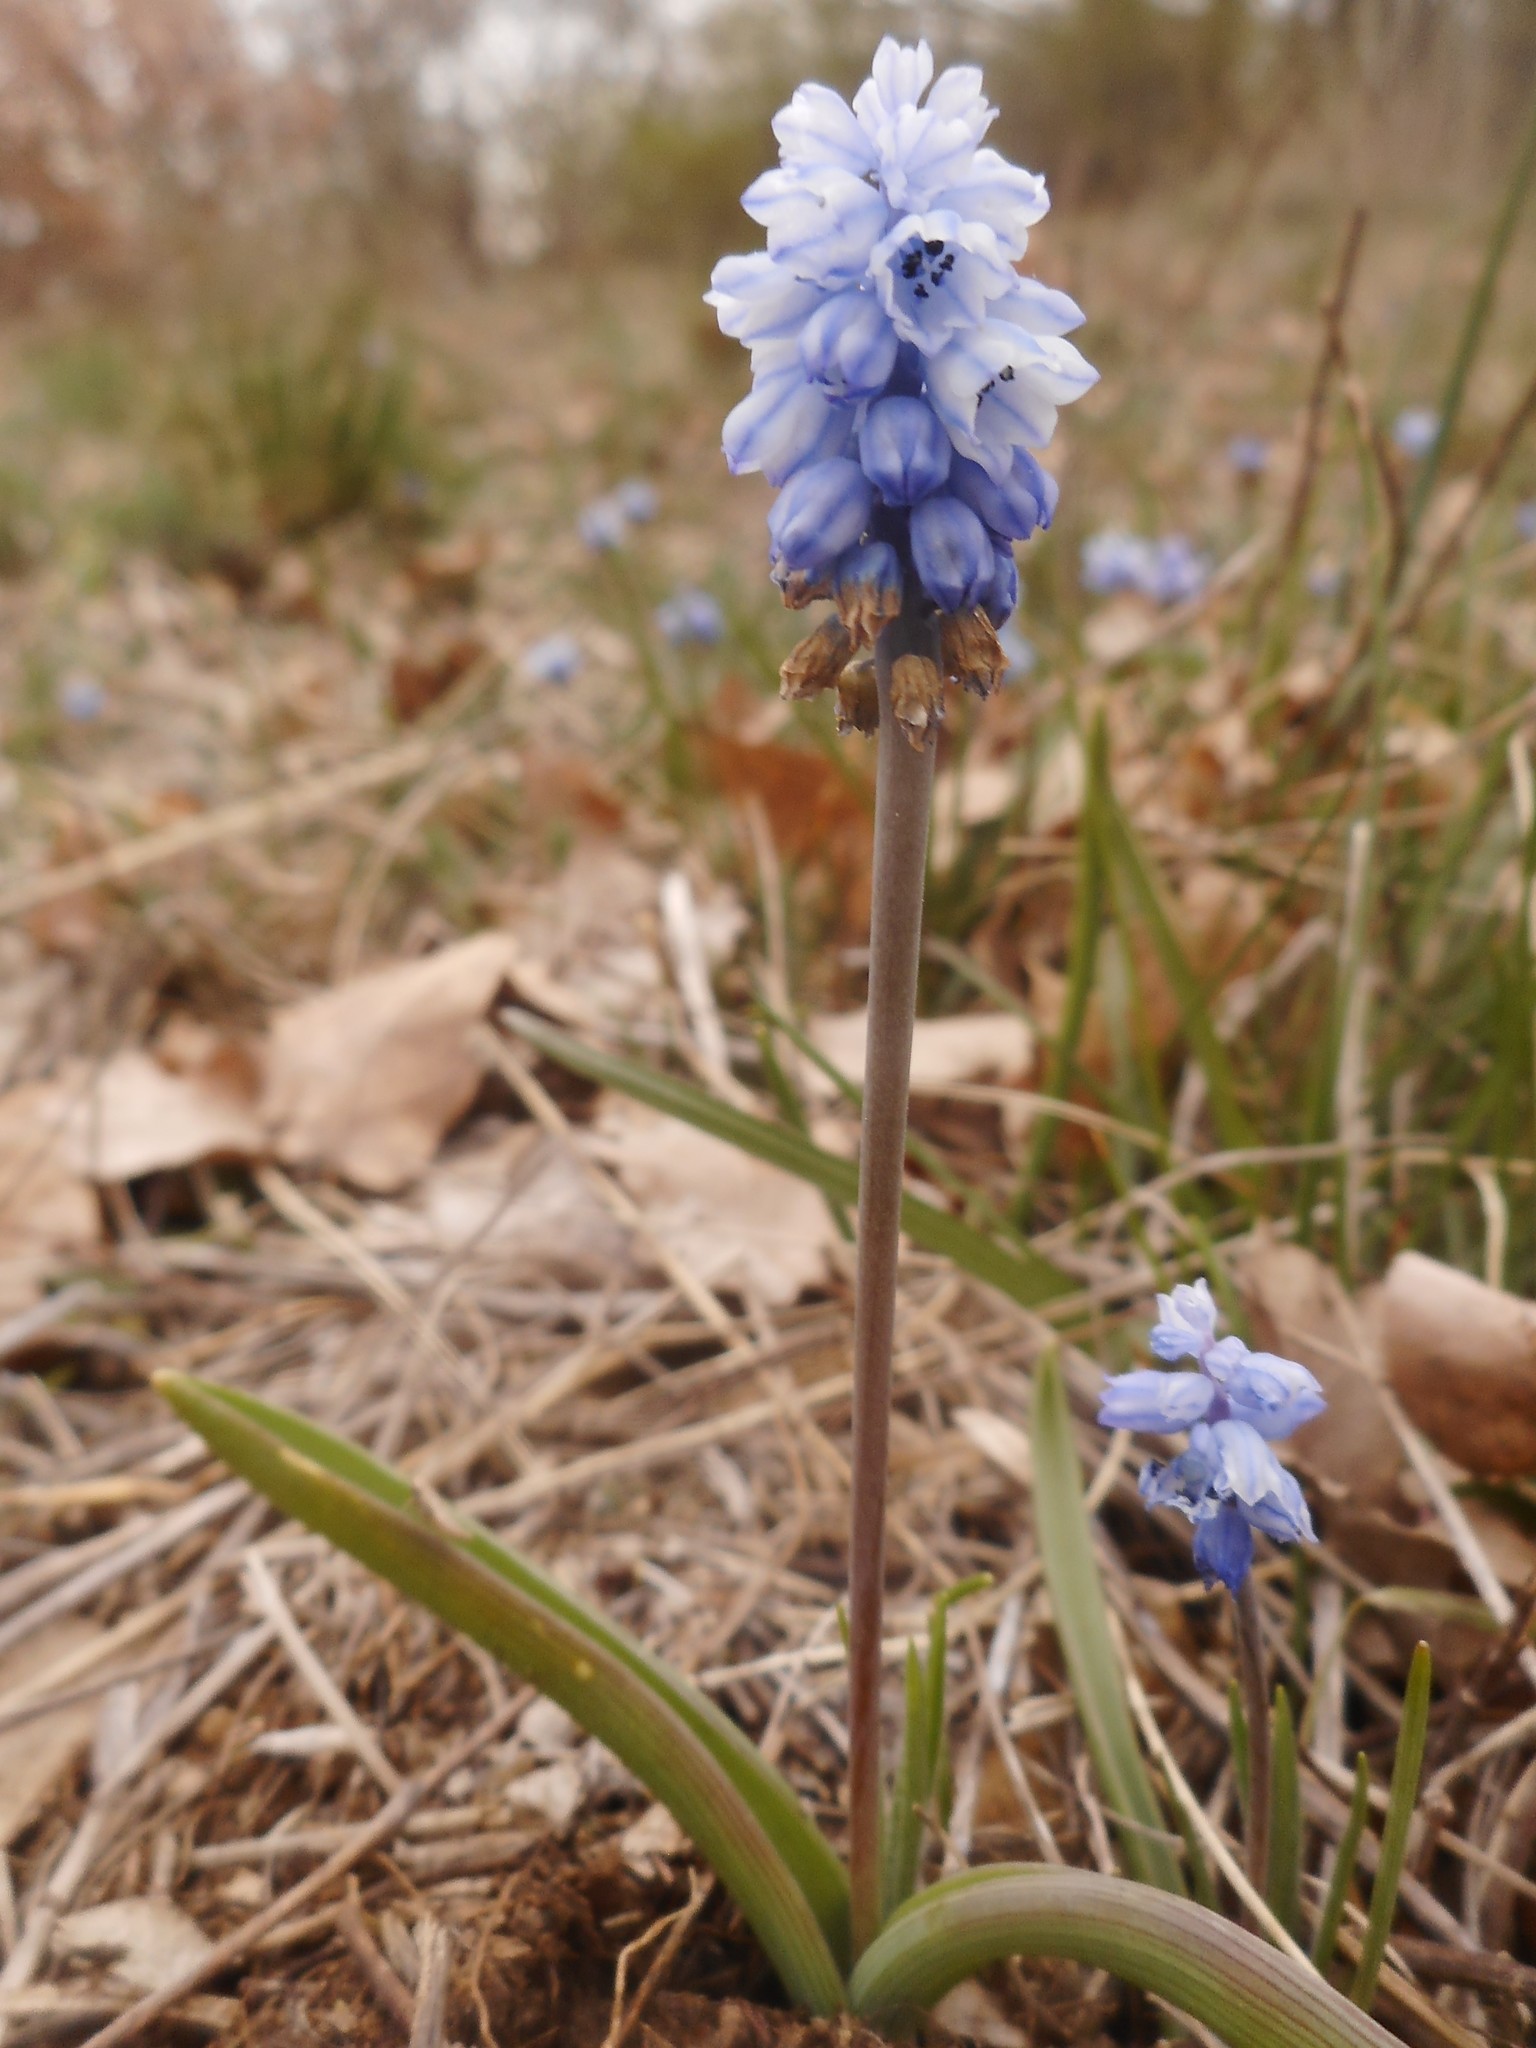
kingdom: Plantae
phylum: Tracheophyta
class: Liliopsida
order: Asparagales
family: Asparagaceae
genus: Muscari
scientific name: Muscari azureum
